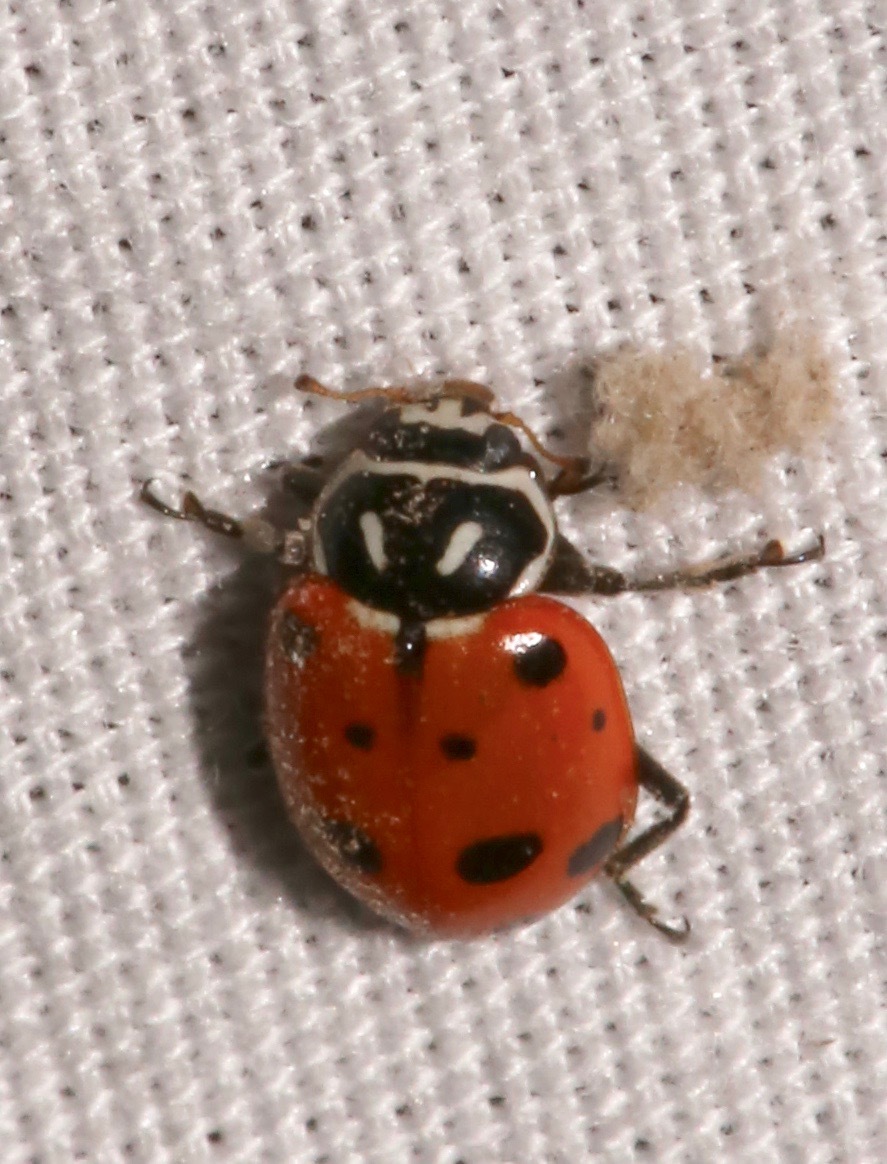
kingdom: Animalia
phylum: Arthropoda
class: Insecta
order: Coleoptera
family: Coccinellidae
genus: Hippodamia
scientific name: Hippodamia convergens
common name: Convergent lady beetle
